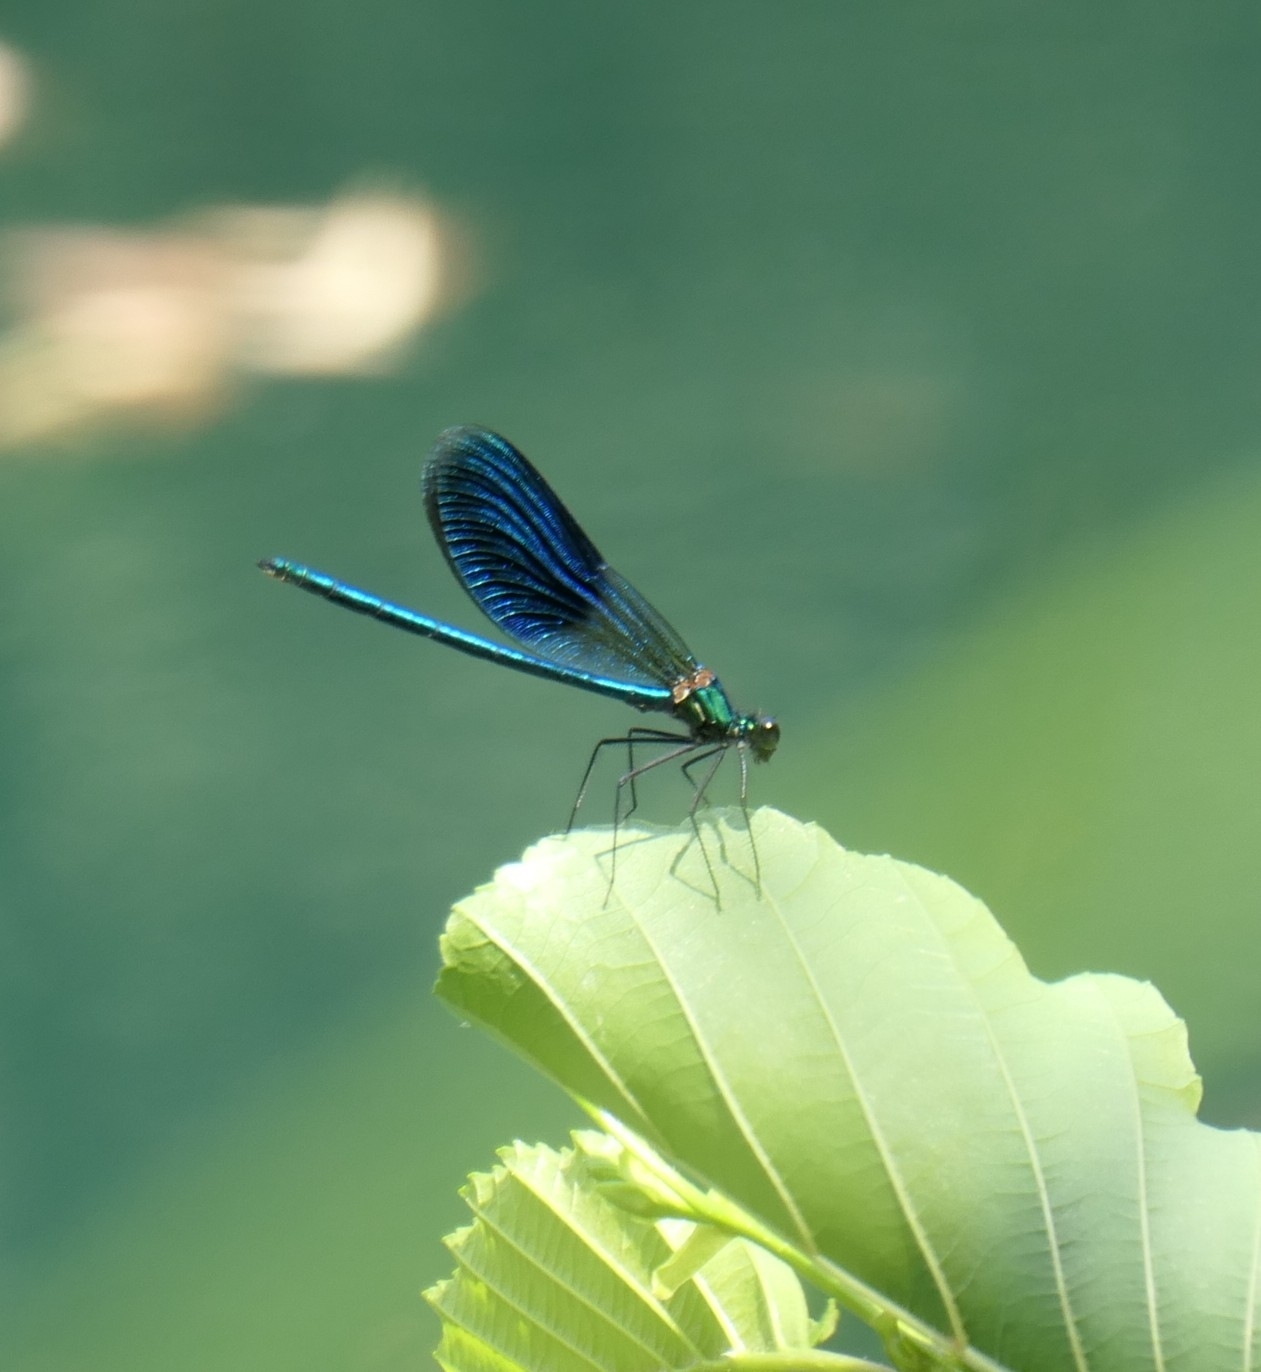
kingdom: Animalia
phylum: Arthropoda
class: Insecta
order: Odonata
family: Calopterygidae
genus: Calopteryx
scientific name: Calopteryx splendens
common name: Banded demoiselle
